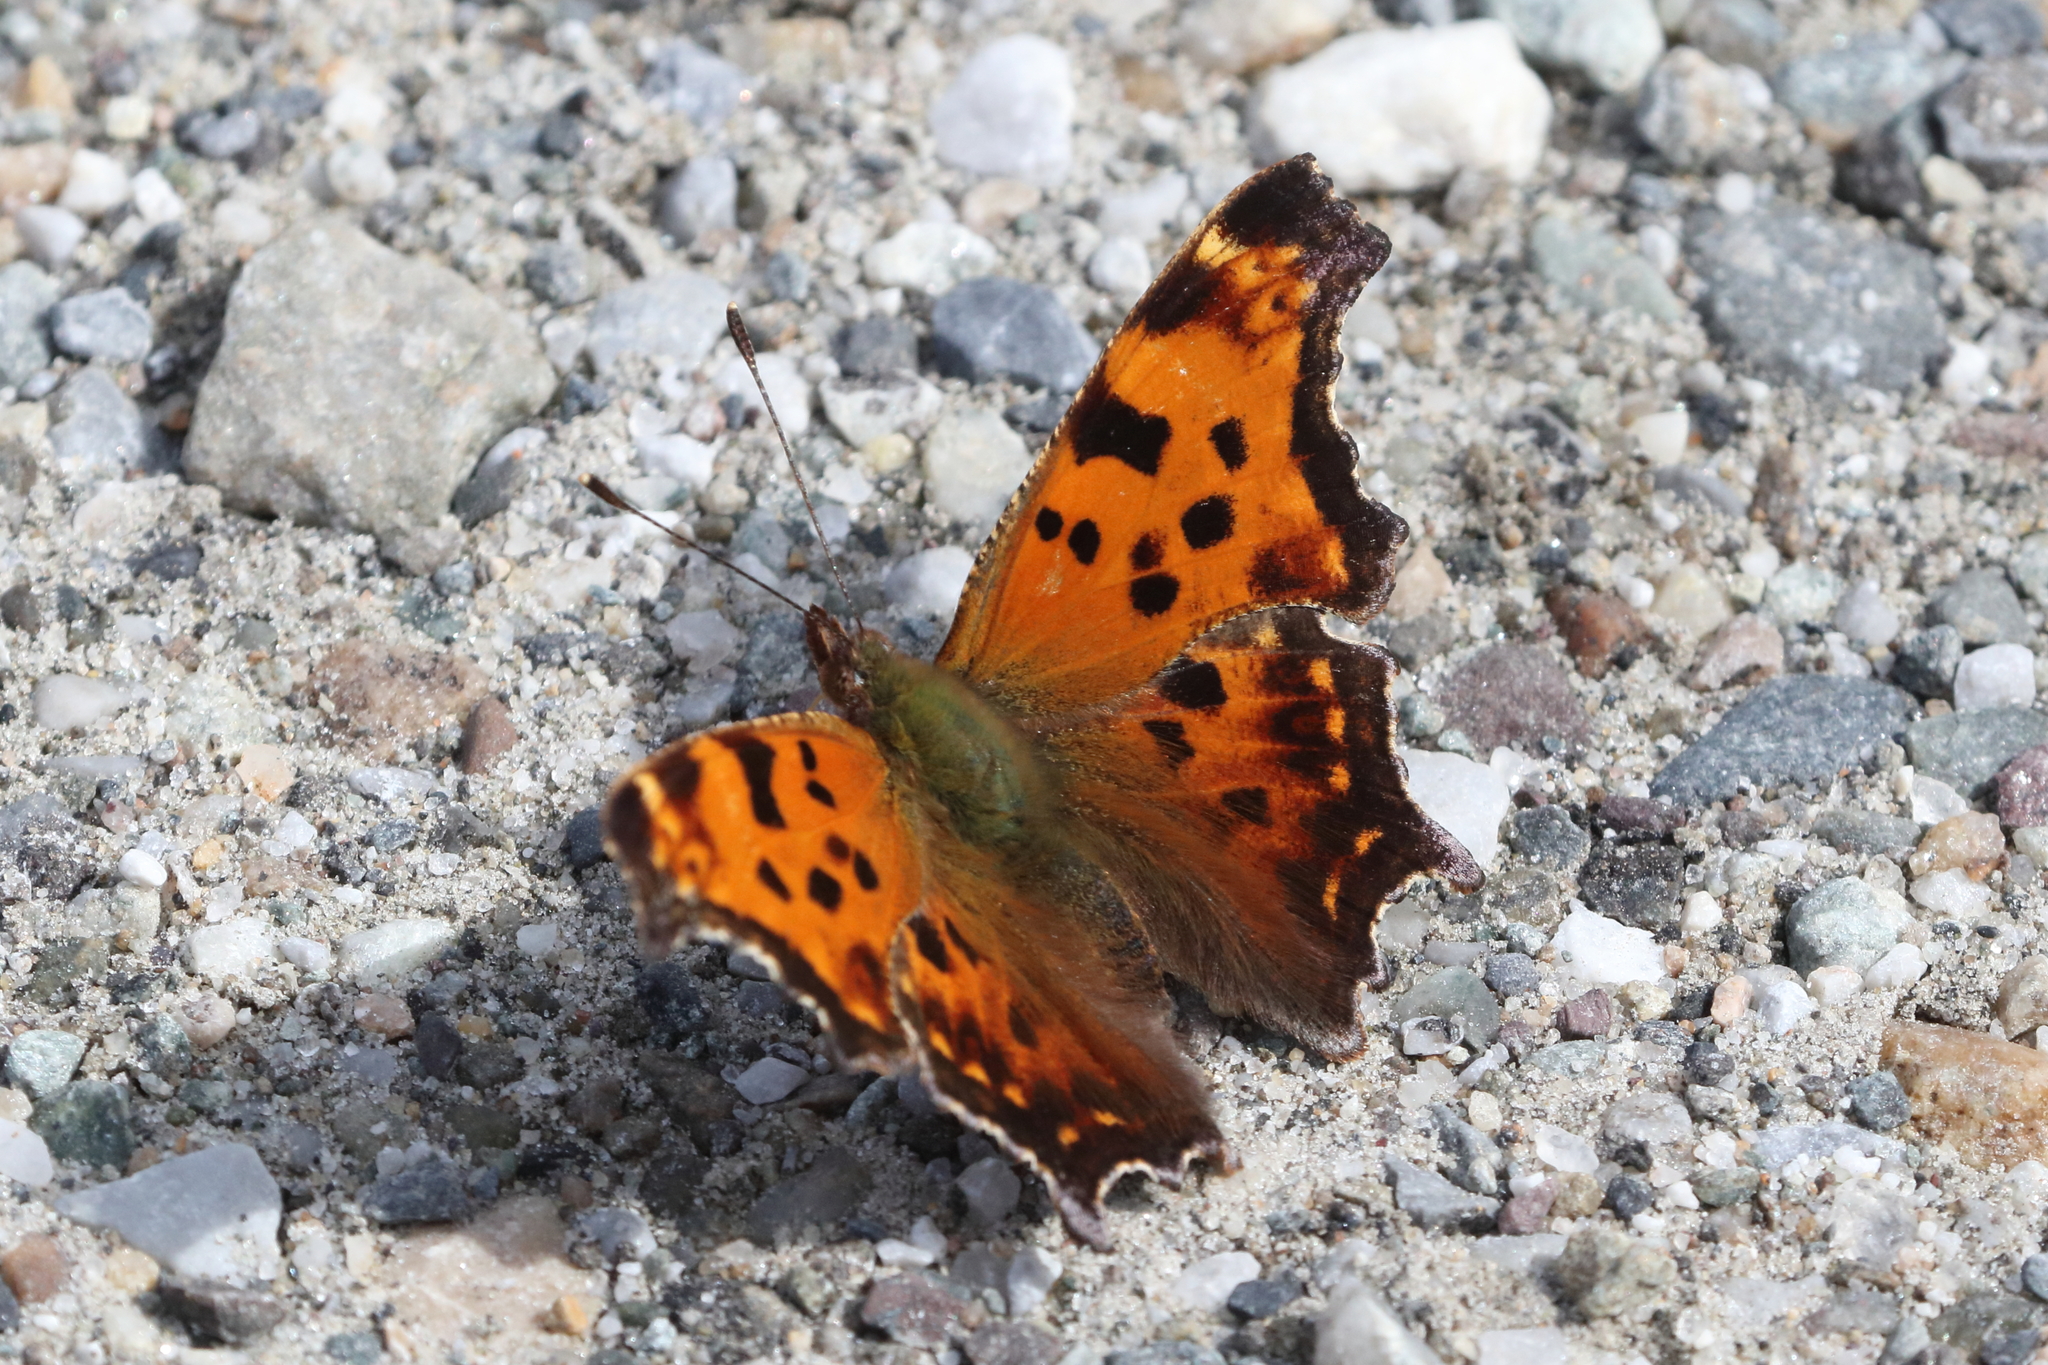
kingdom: Animalia
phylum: Arthropoda
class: Insecta
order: Lepidoptera
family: Nymphalidae
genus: Polygonia
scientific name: Polygonia comma
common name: Eastern comma
